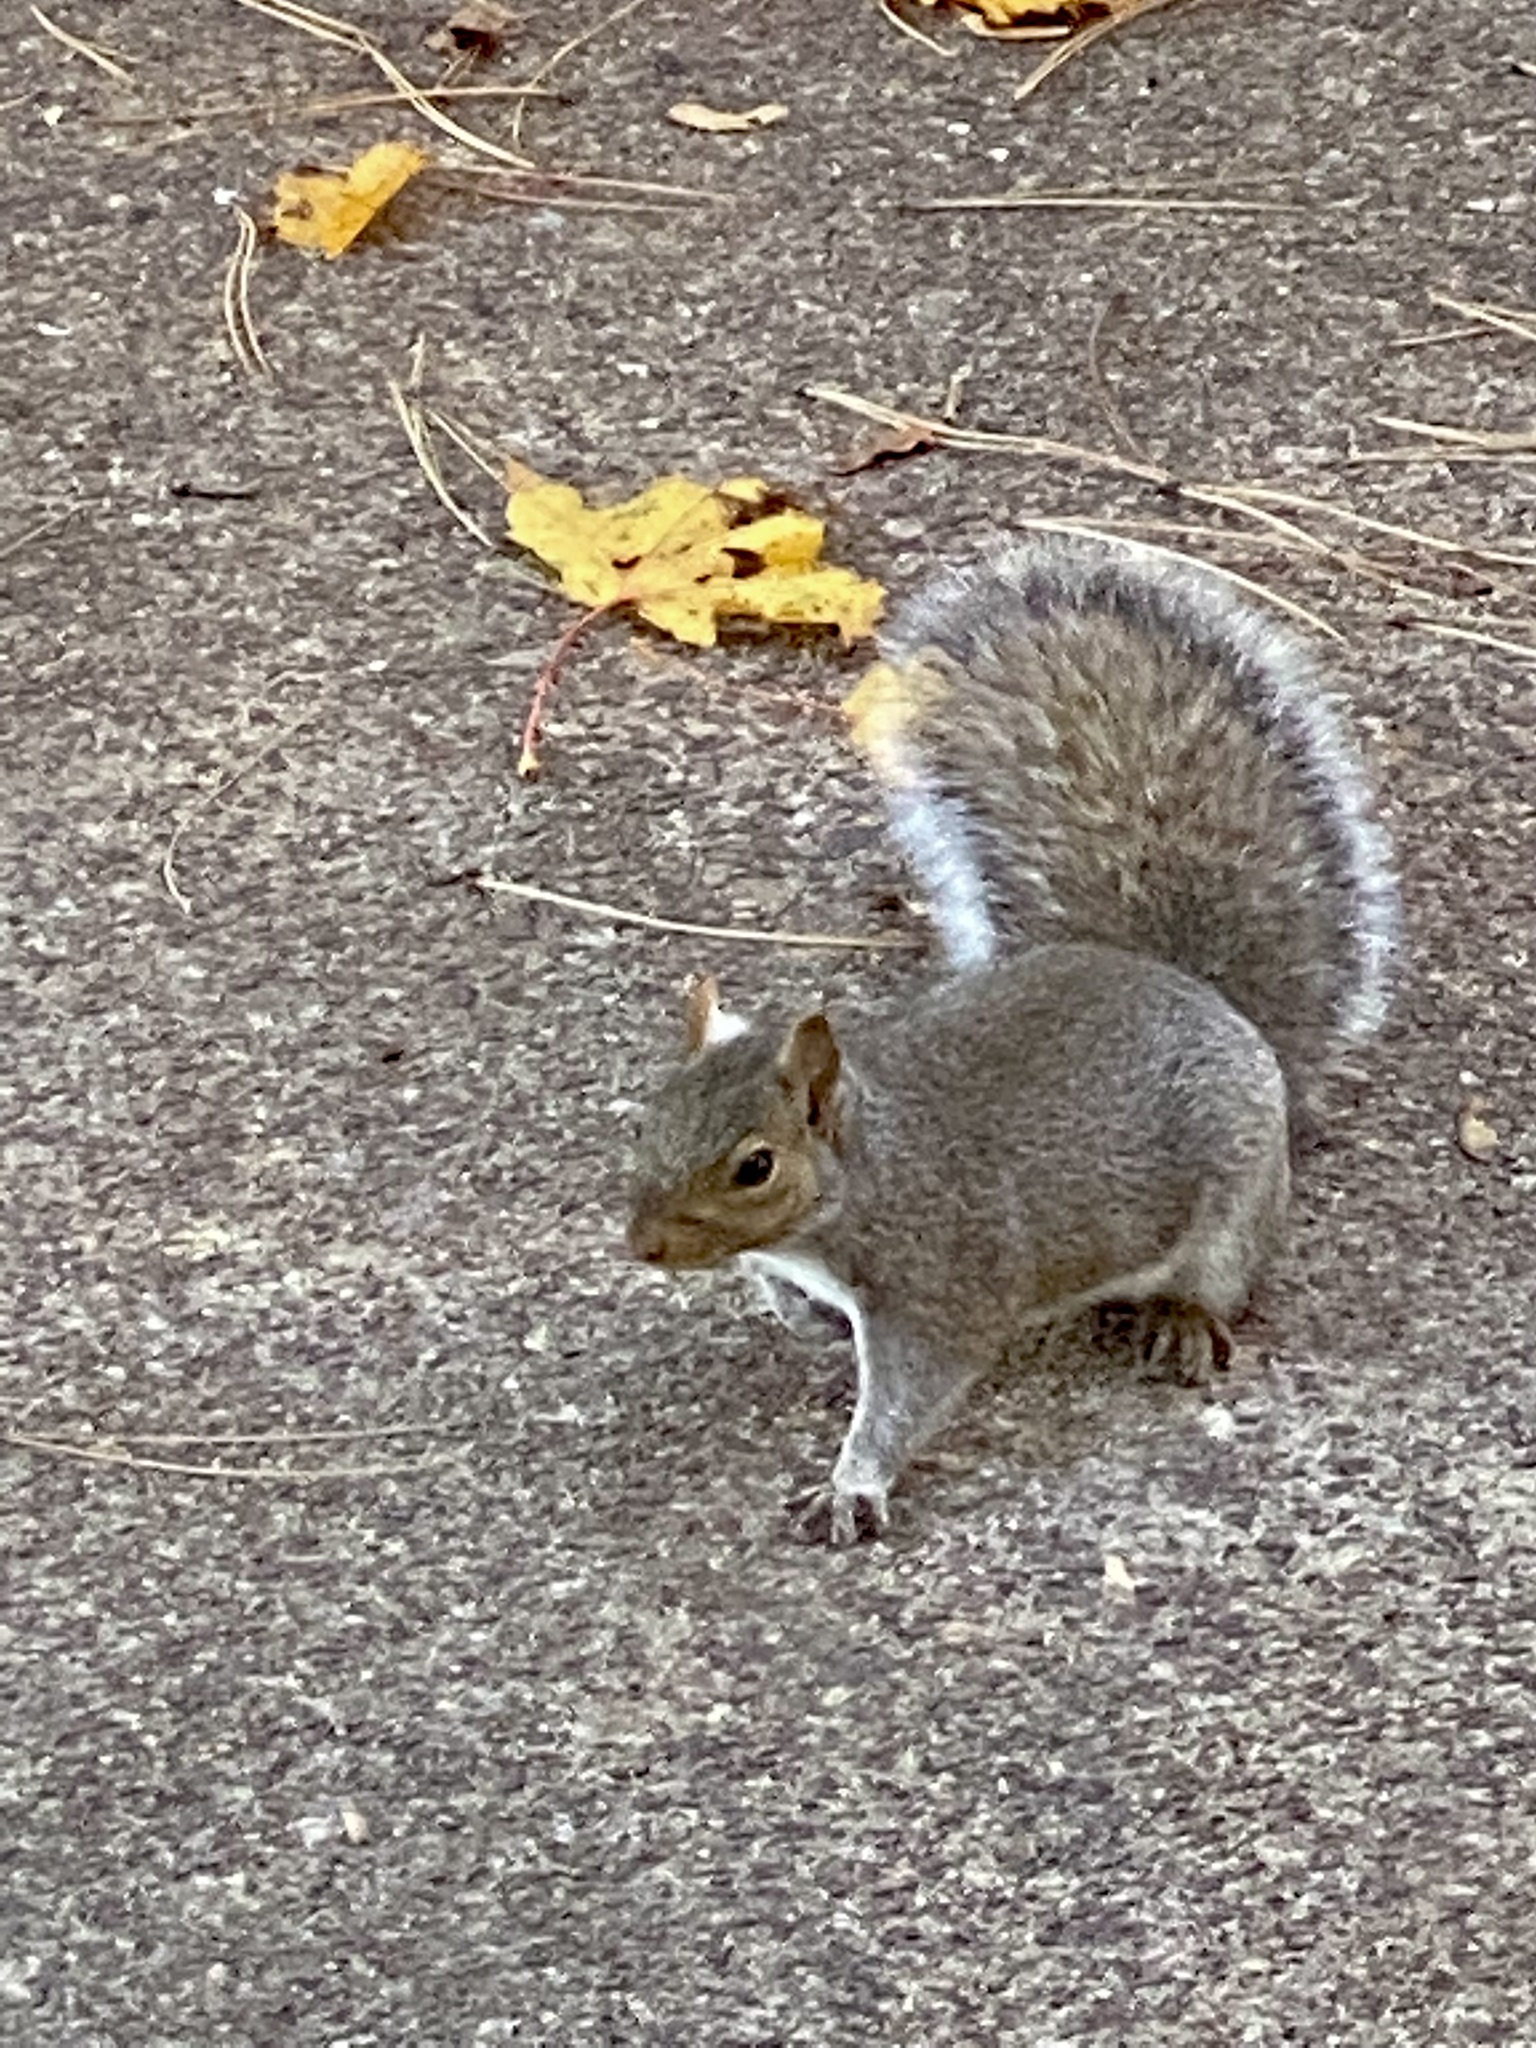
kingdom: Animalia
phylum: Chordata
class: Mammalia
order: Rodentia
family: Sciuridae
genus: Sciurus
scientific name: Sciurus carolinensis
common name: Eastern gray squirrel
